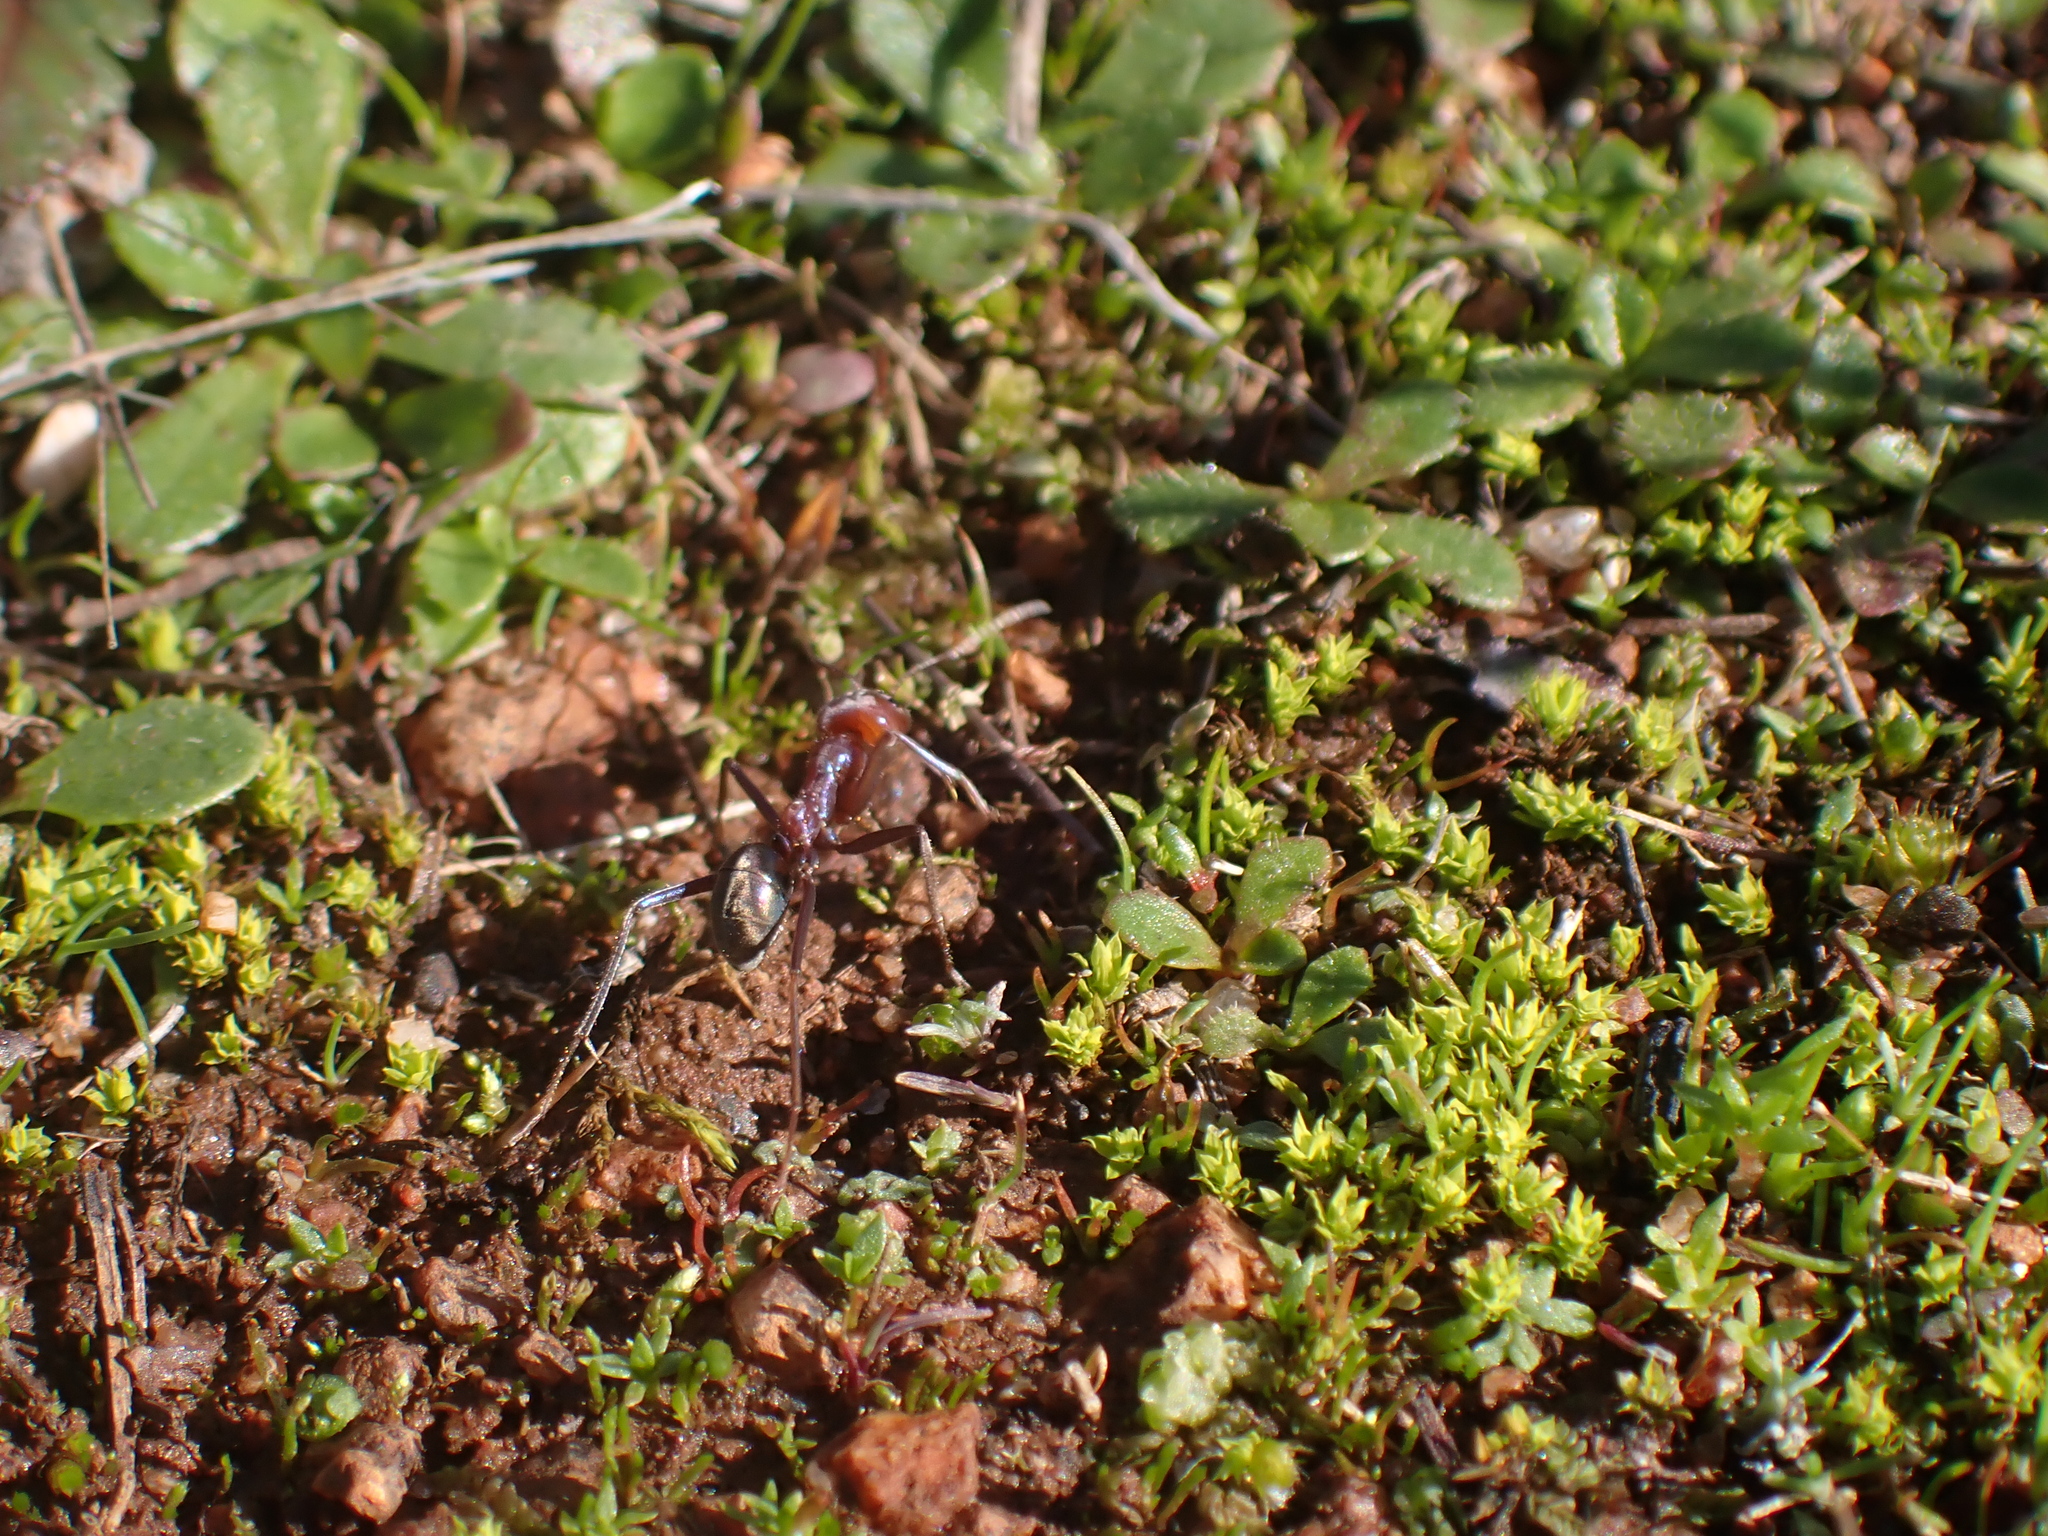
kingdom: Animalia
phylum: Arthropoda
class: Insecta
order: Hymenoptera
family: Formicidae
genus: Iridomyrmex
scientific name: Iridomyrmex purpureus
